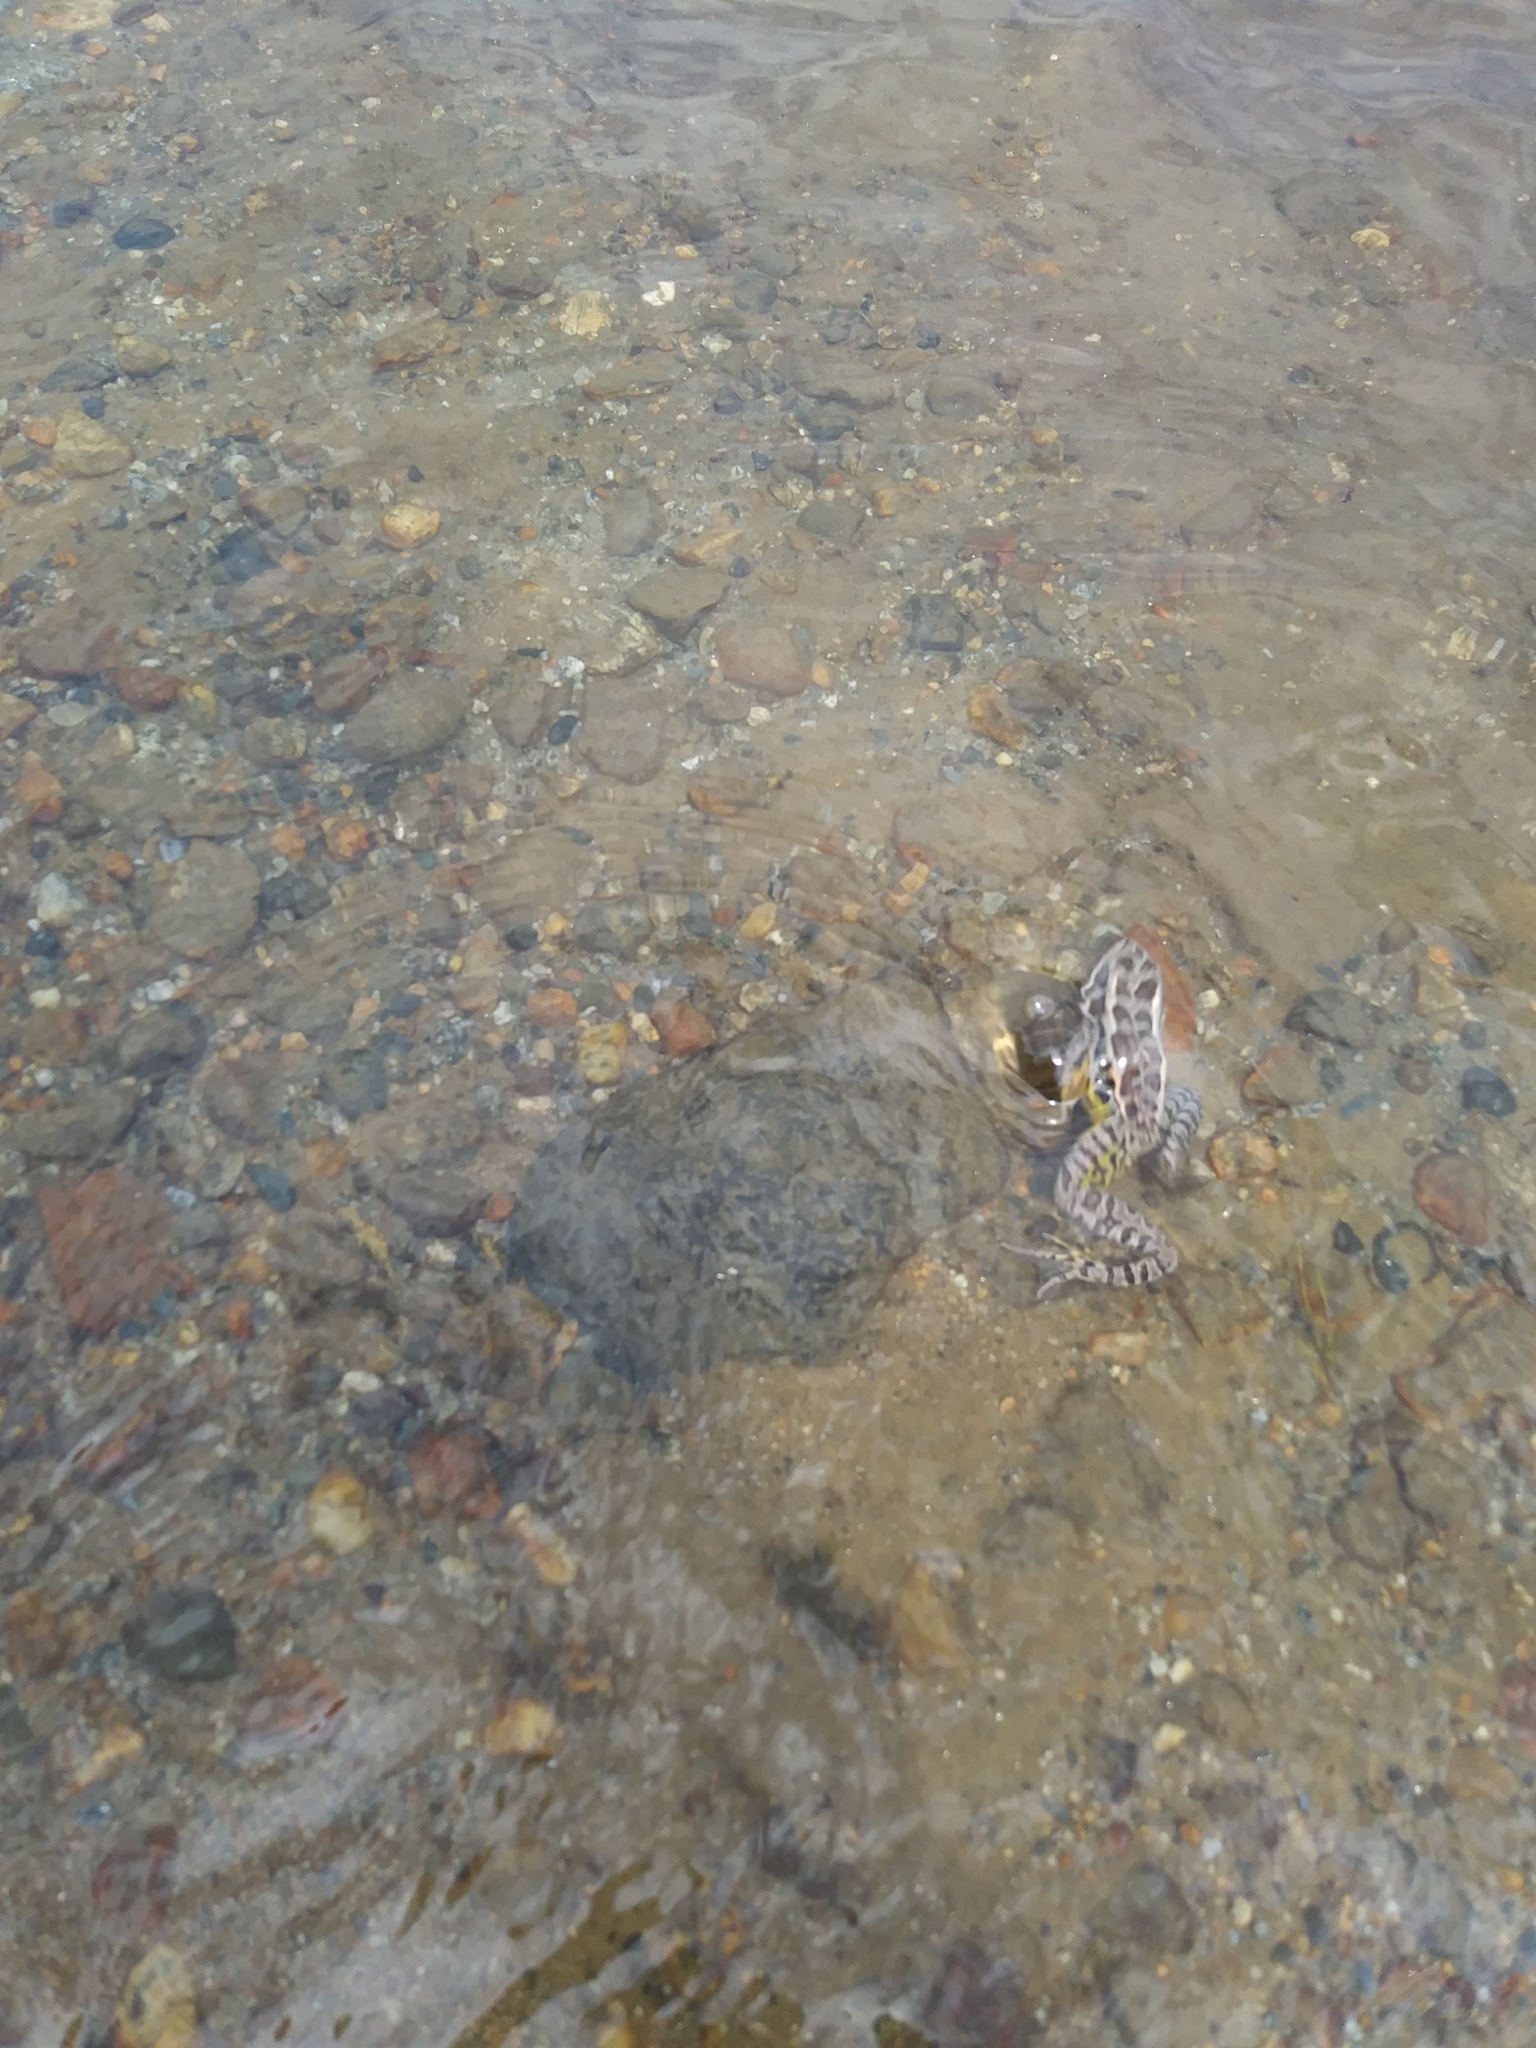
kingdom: Animalia
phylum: Chordata
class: Amphibia
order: Anura
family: Ranidae
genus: Lithobates
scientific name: Lithobates palustris
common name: Pickerel frog
